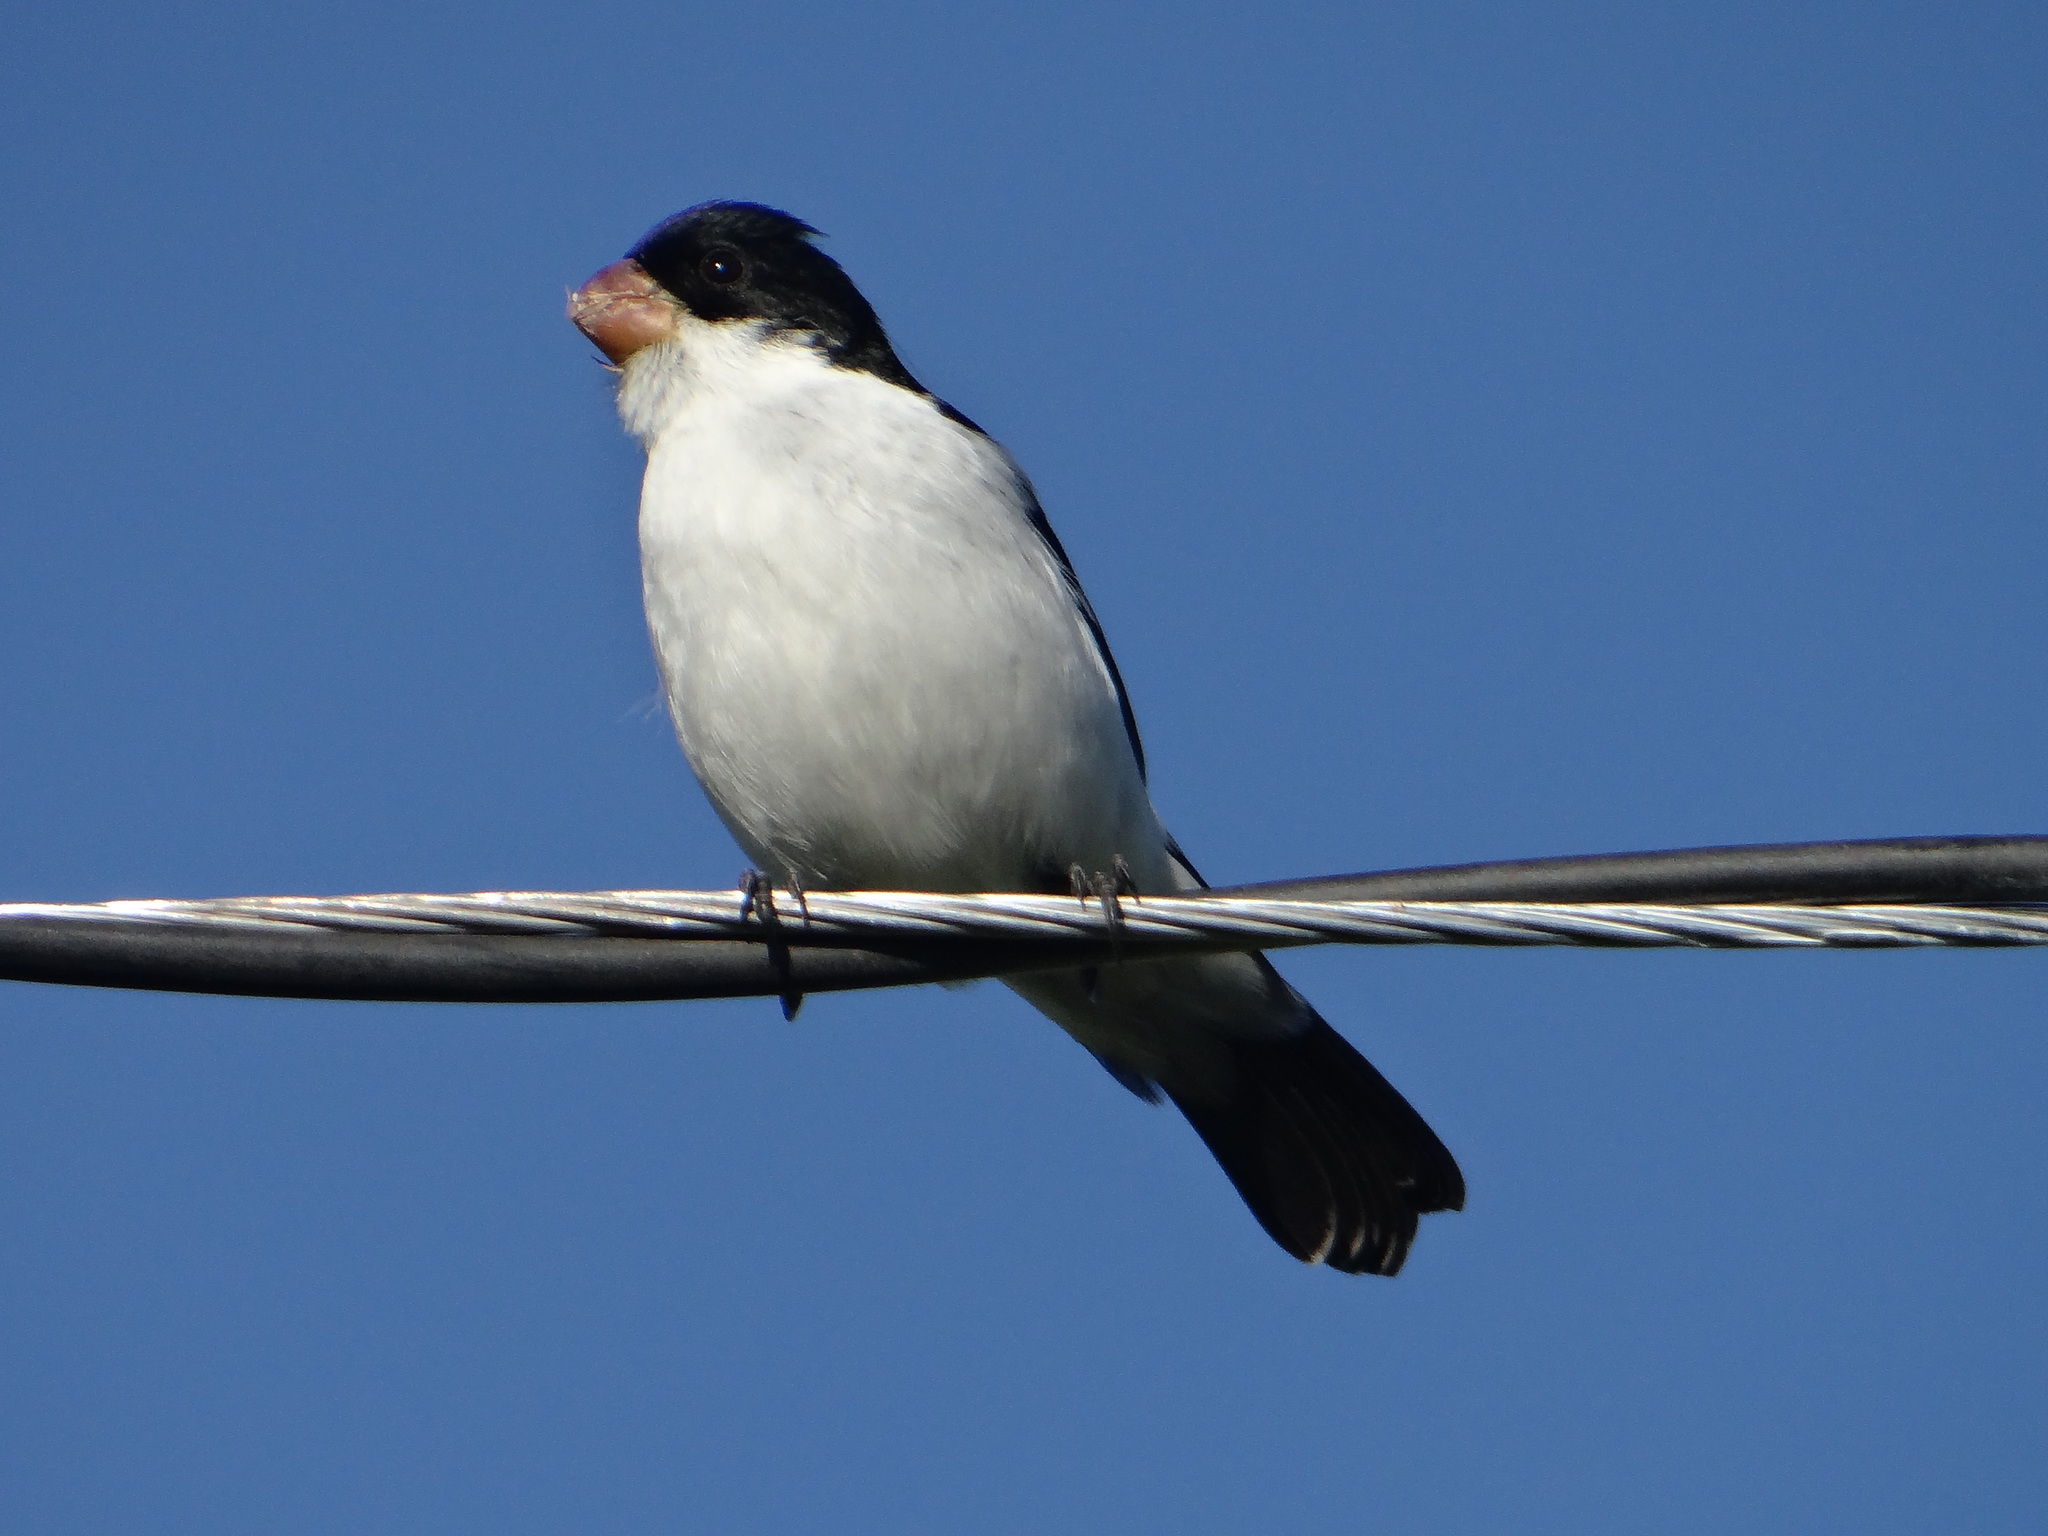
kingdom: Animalia
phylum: Chordata
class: Aves
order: Passeriformes
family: Thraupidae
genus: Sporophila
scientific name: Sporophila leucoptera
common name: White-bellied seedeater
